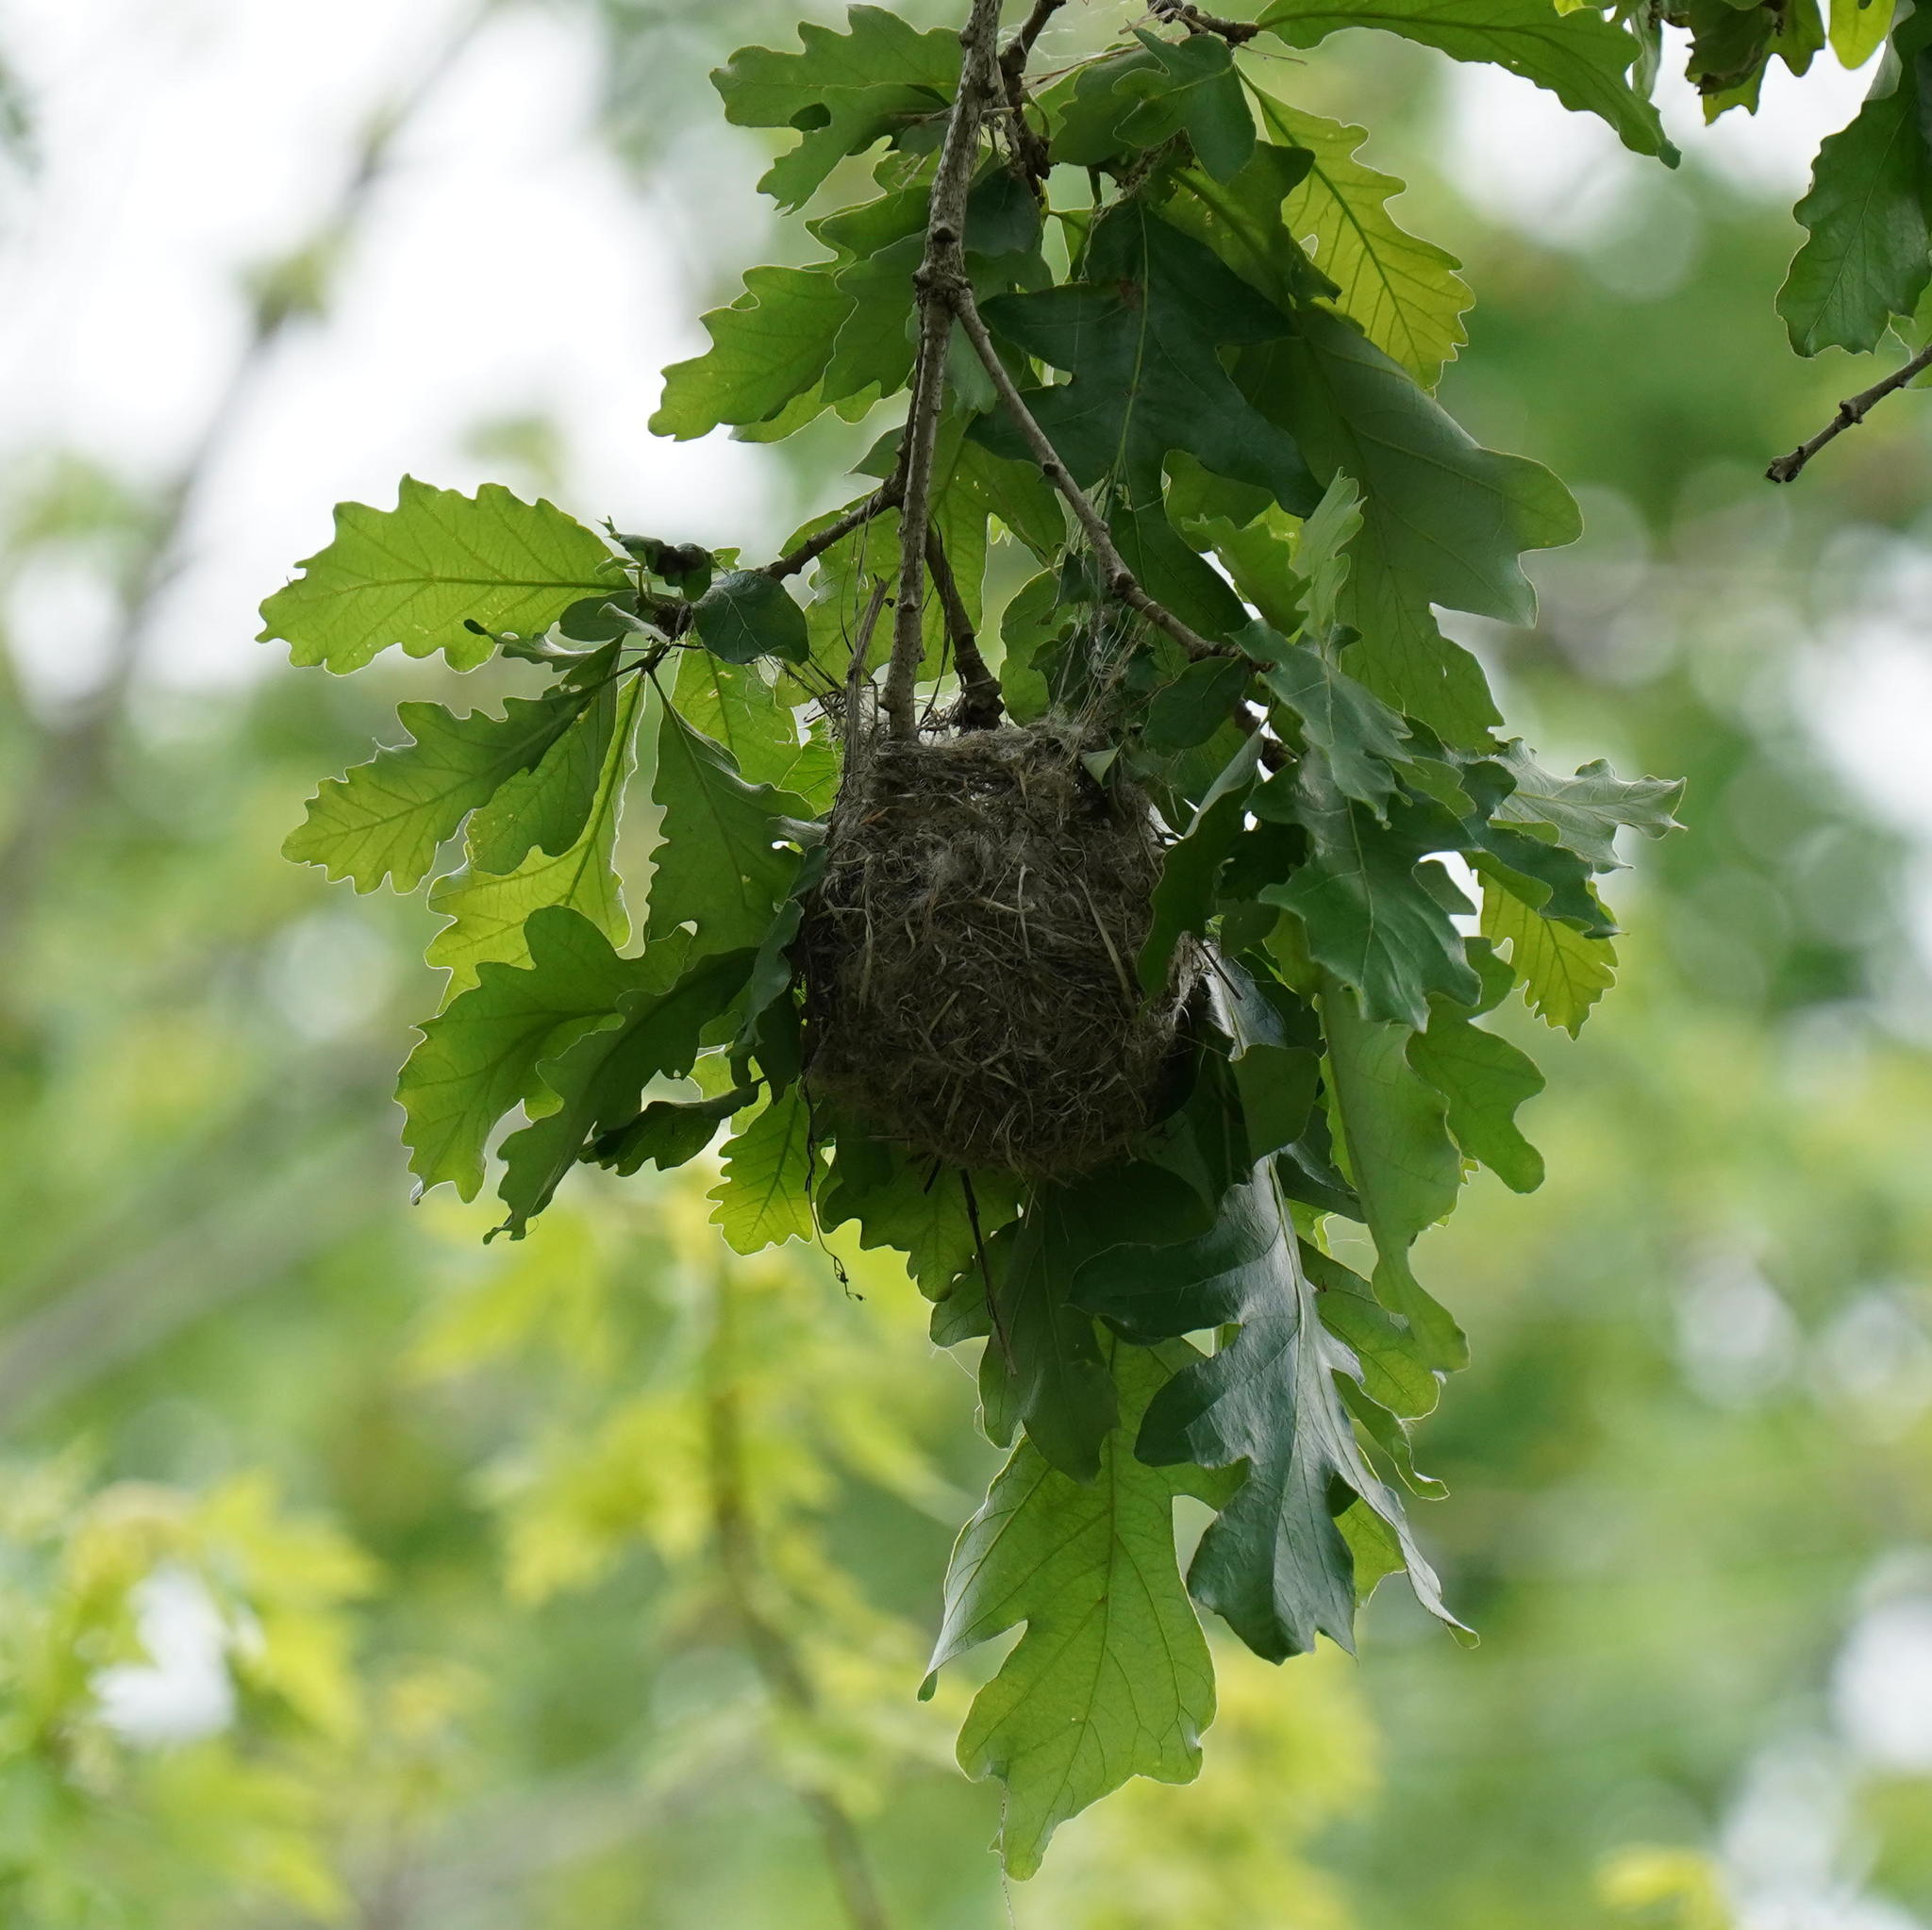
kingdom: Animalia
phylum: Chordata
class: Aves
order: Passeriformes
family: Icteridae
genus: Icterus
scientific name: Icterus galbula
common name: Baltimore oriole
